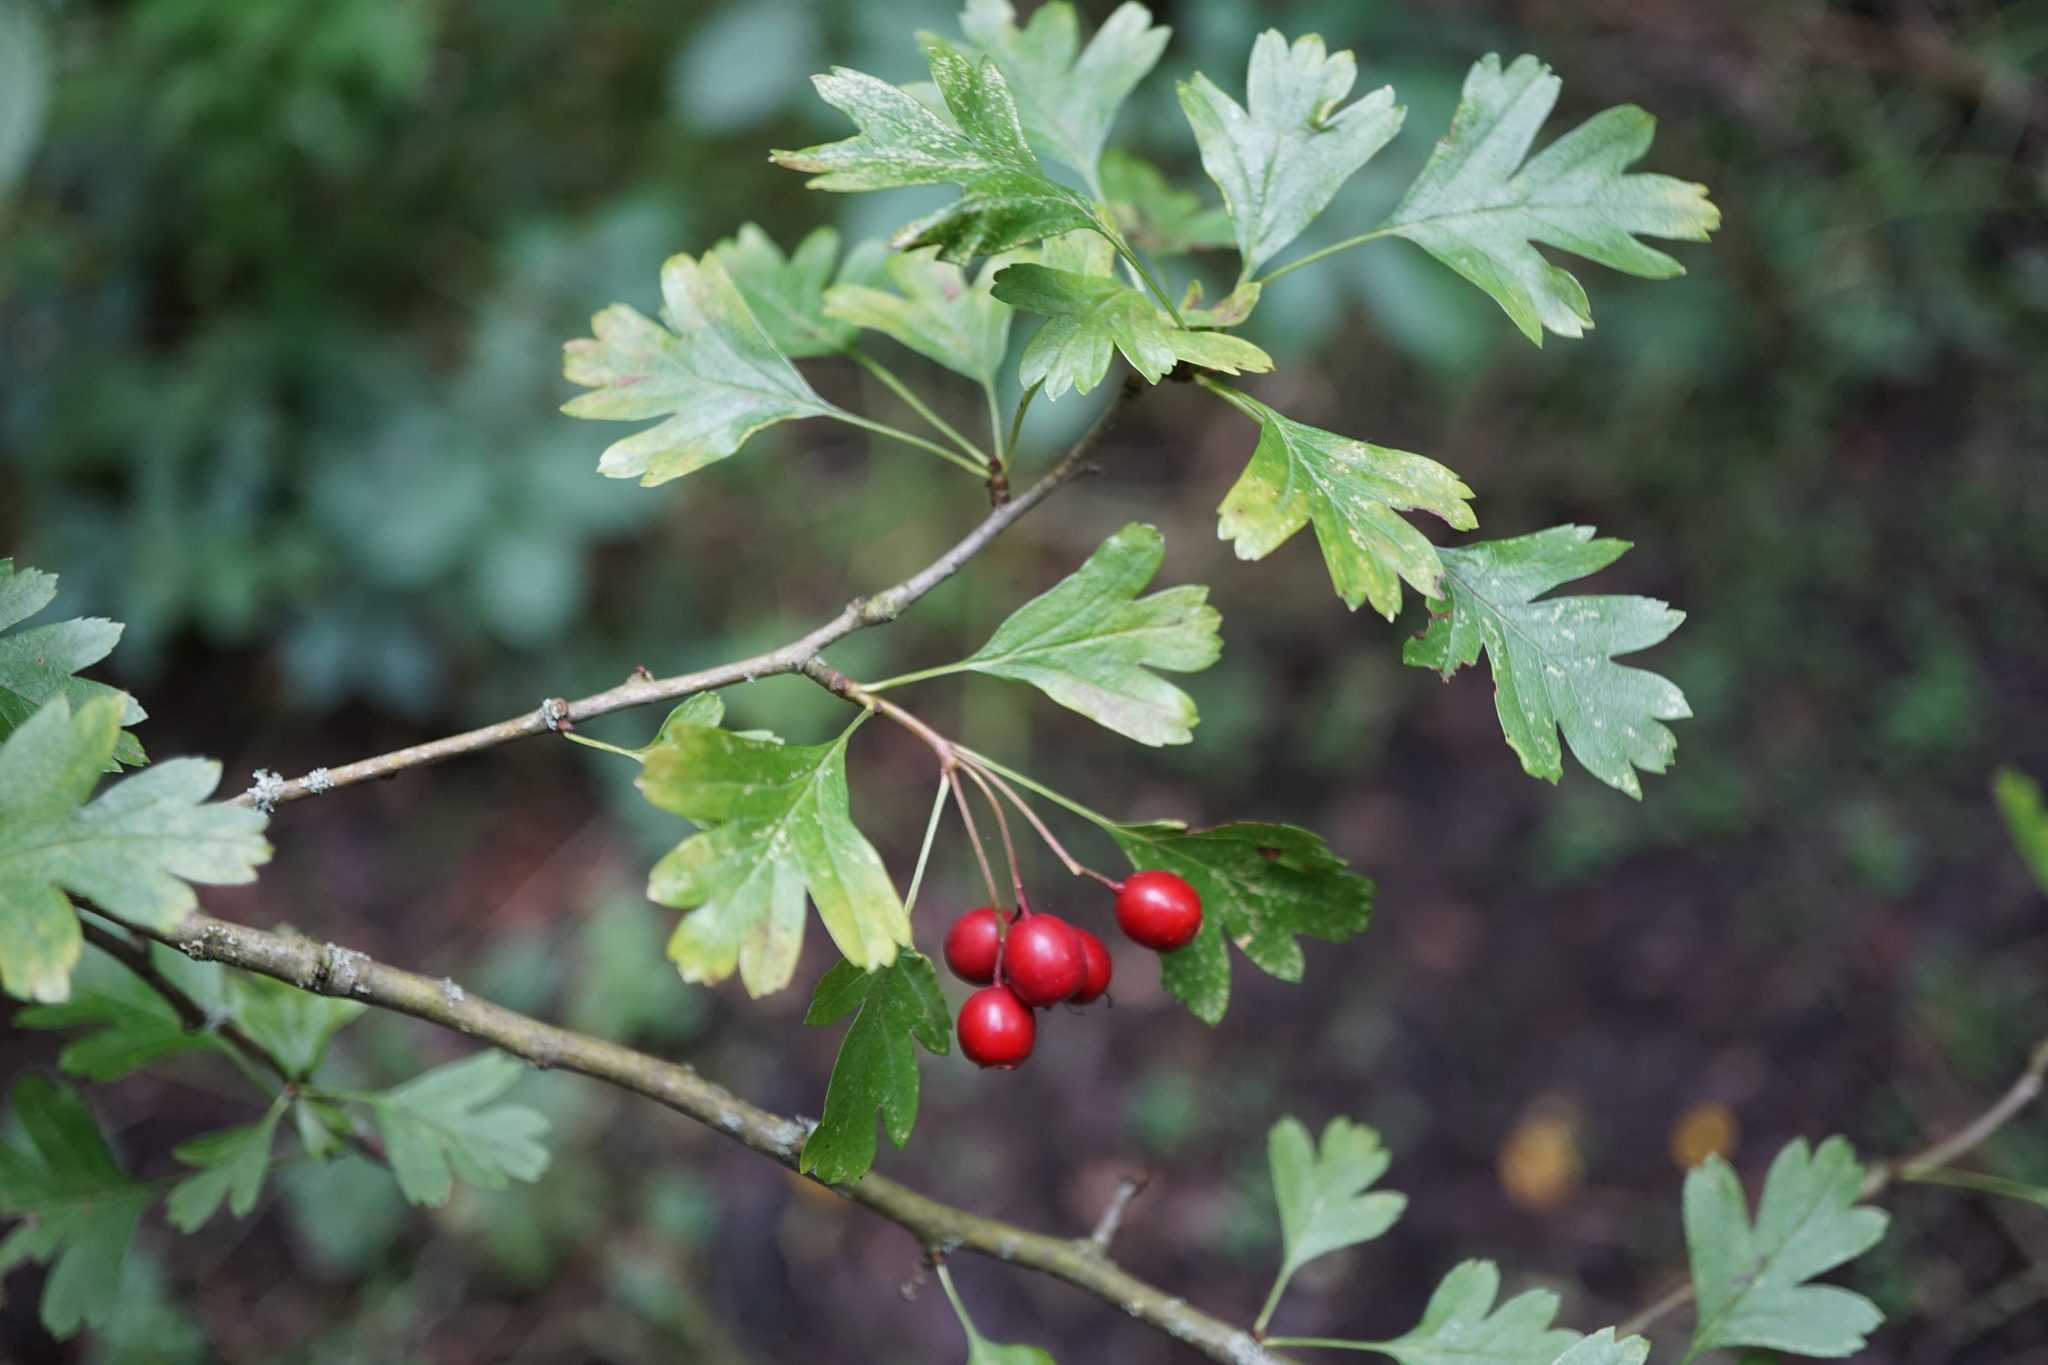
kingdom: Plantae
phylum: Tracheophyta
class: Magnoliopsida
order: Rosales
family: Rosaceae
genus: Crataegus
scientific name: Crataegus monogyna
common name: Hawthorn
